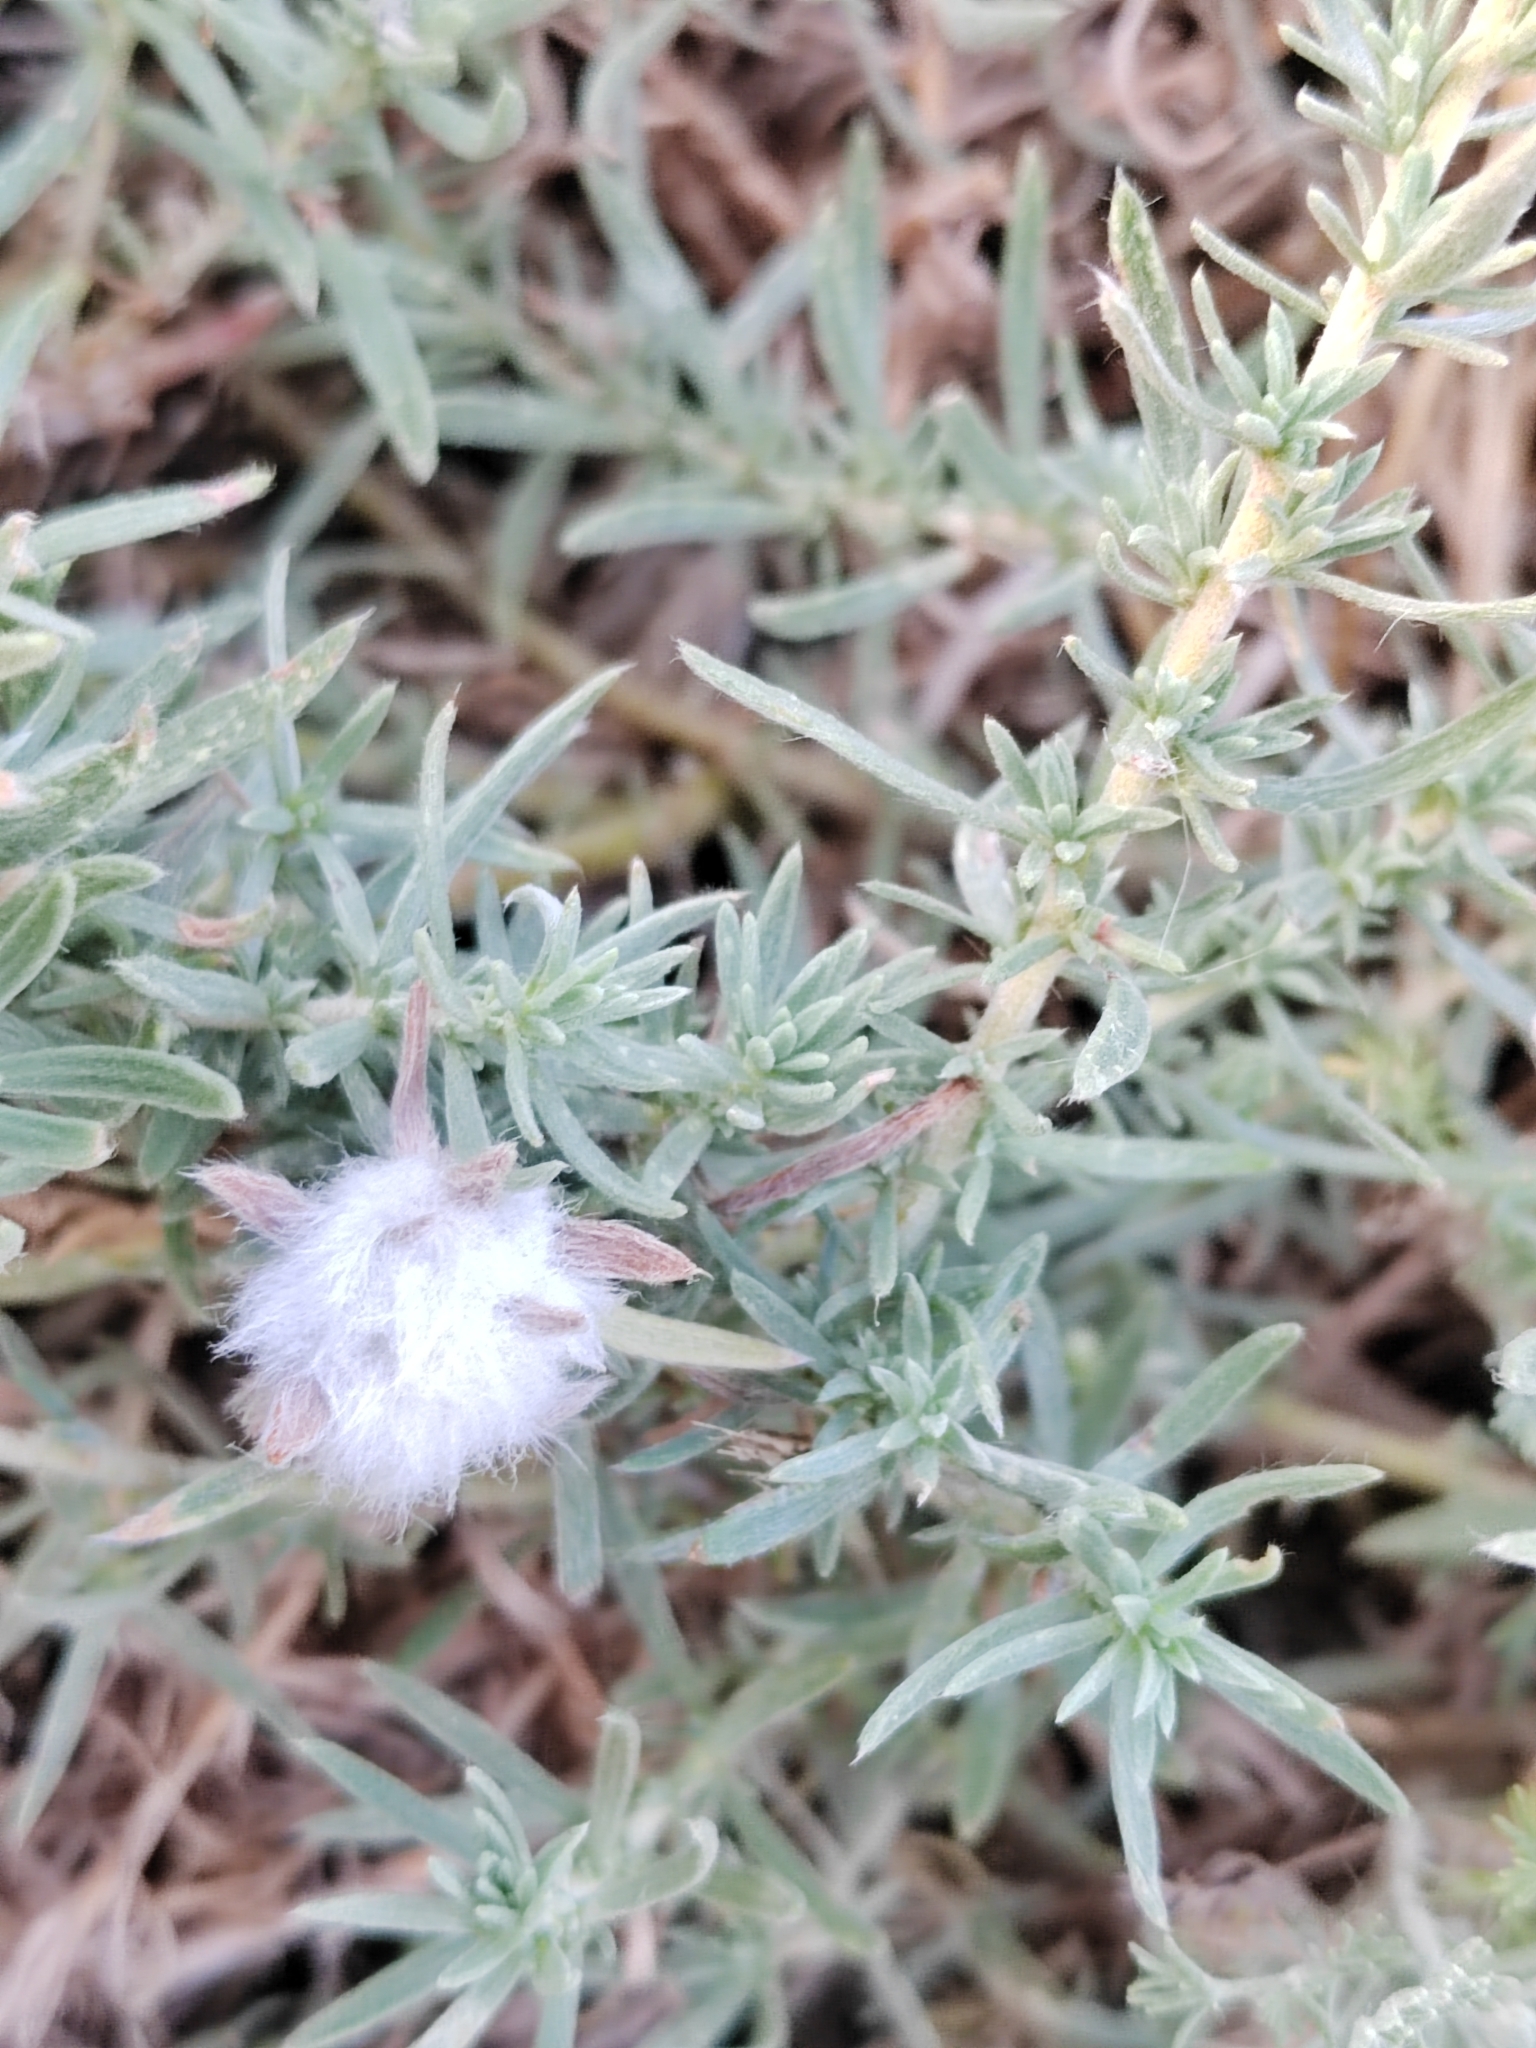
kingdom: Plantae
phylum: Tracheophyta
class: Magnoliopsida
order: Caryophyllales
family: Amaranthaceae
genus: Bassia
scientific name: Bassia prostrata
